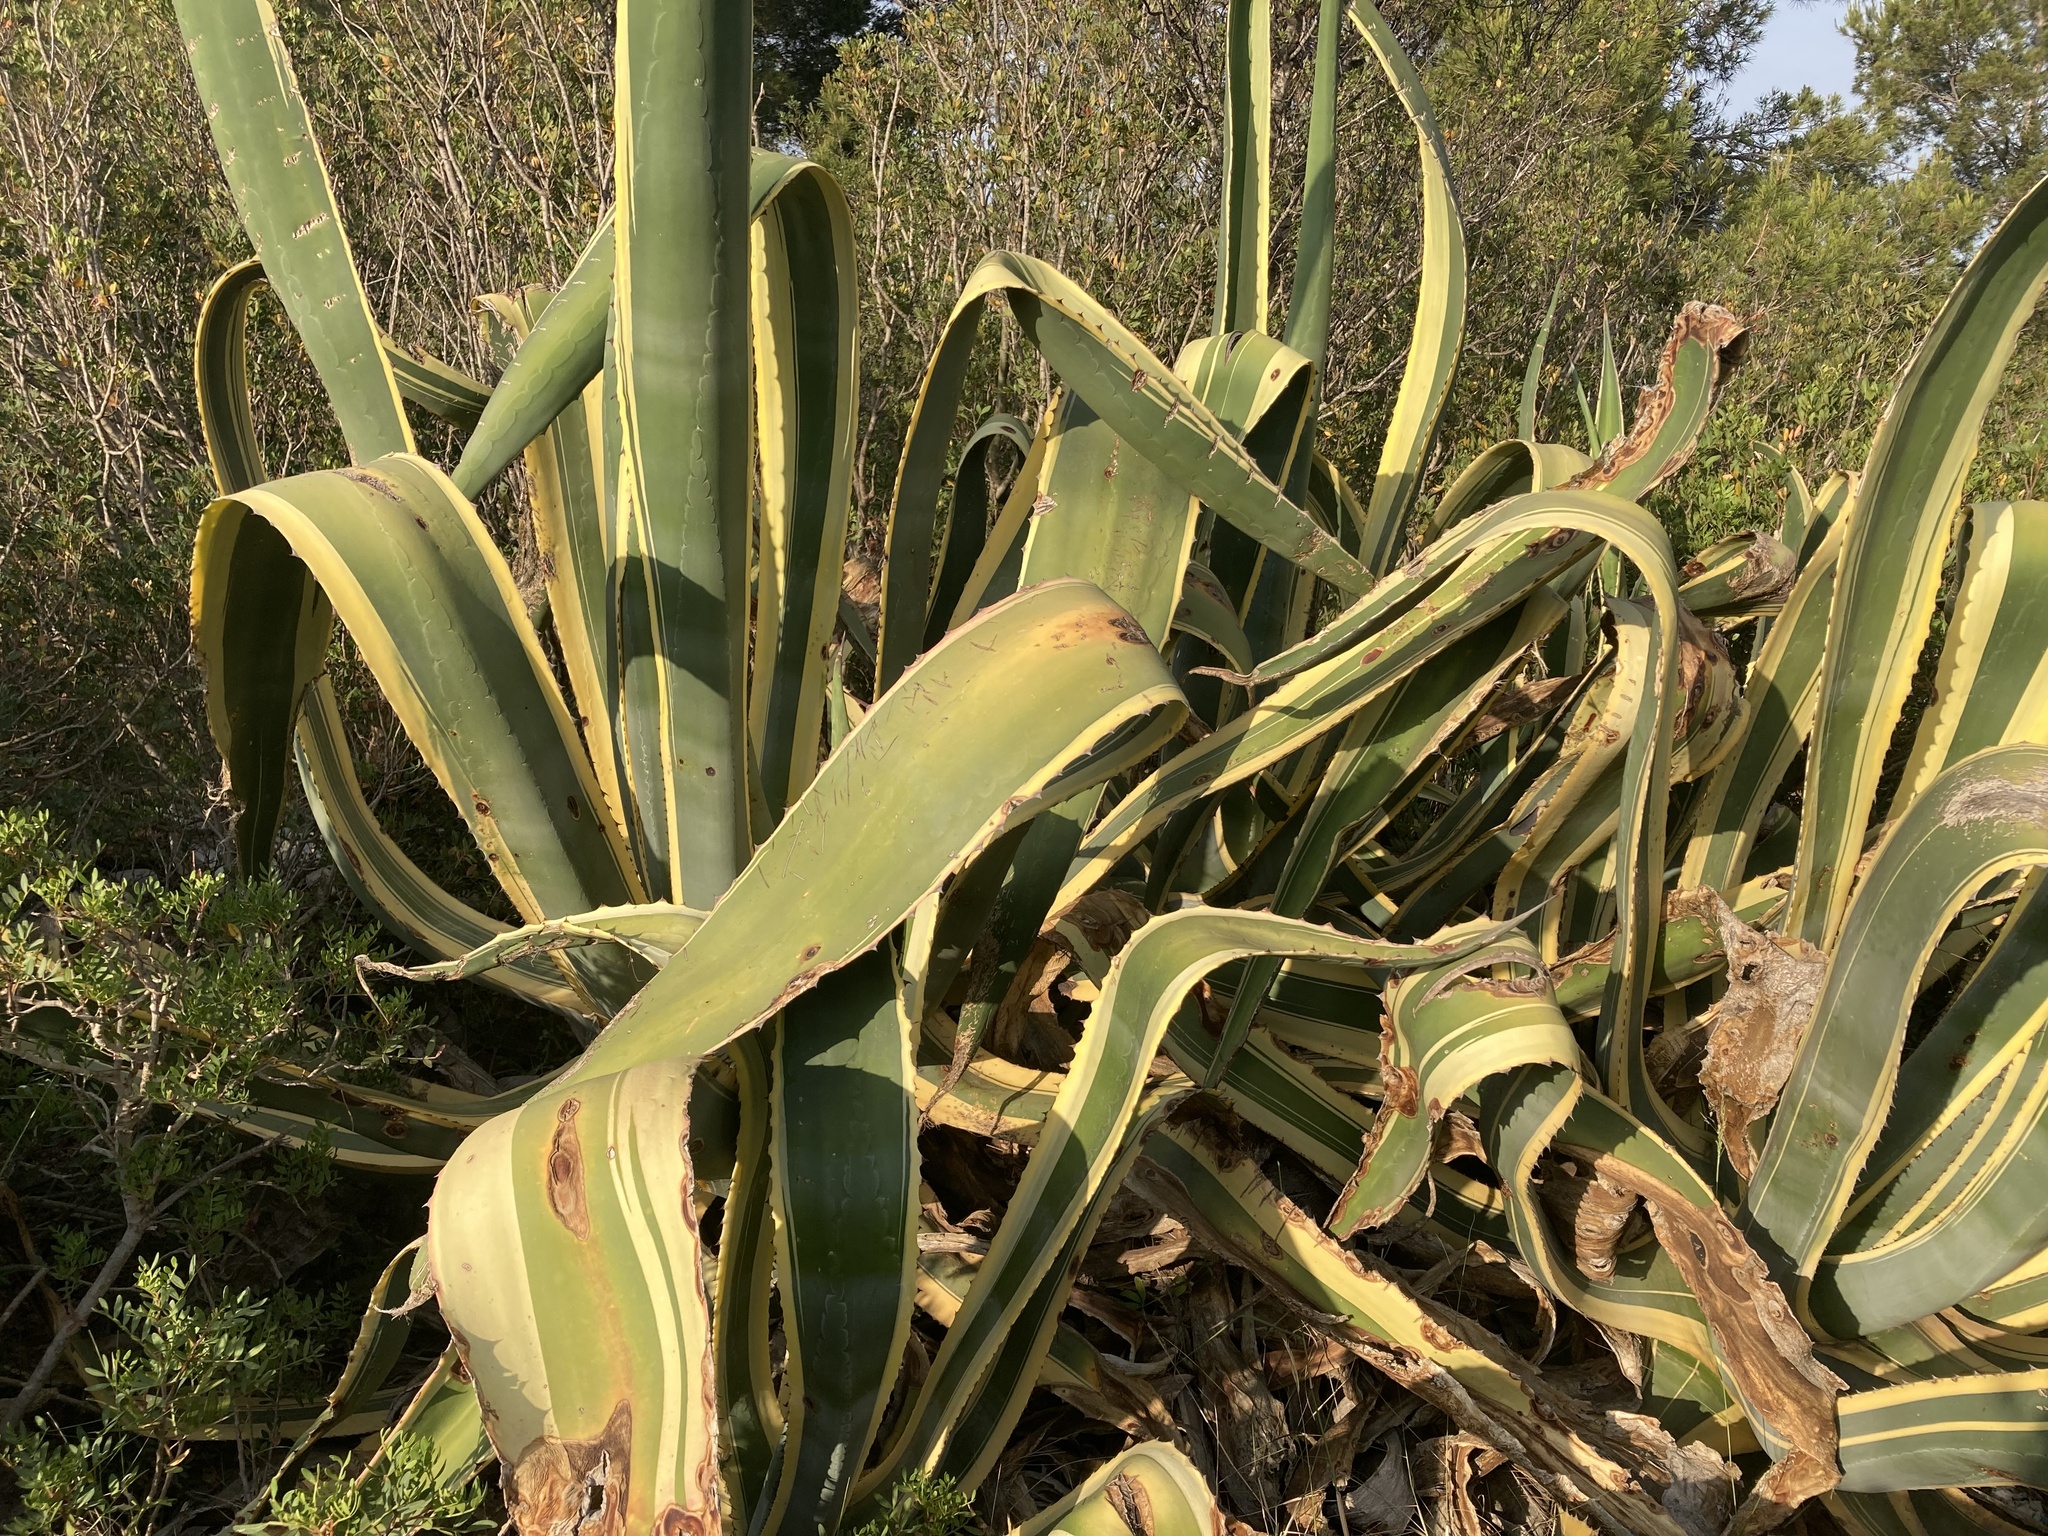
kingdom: Plantae
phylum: Tracheophyta
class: Liliopsida
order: Asparagales
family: Asparagaceae
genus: Agave
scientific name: Agave americana
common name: Centuryplant
